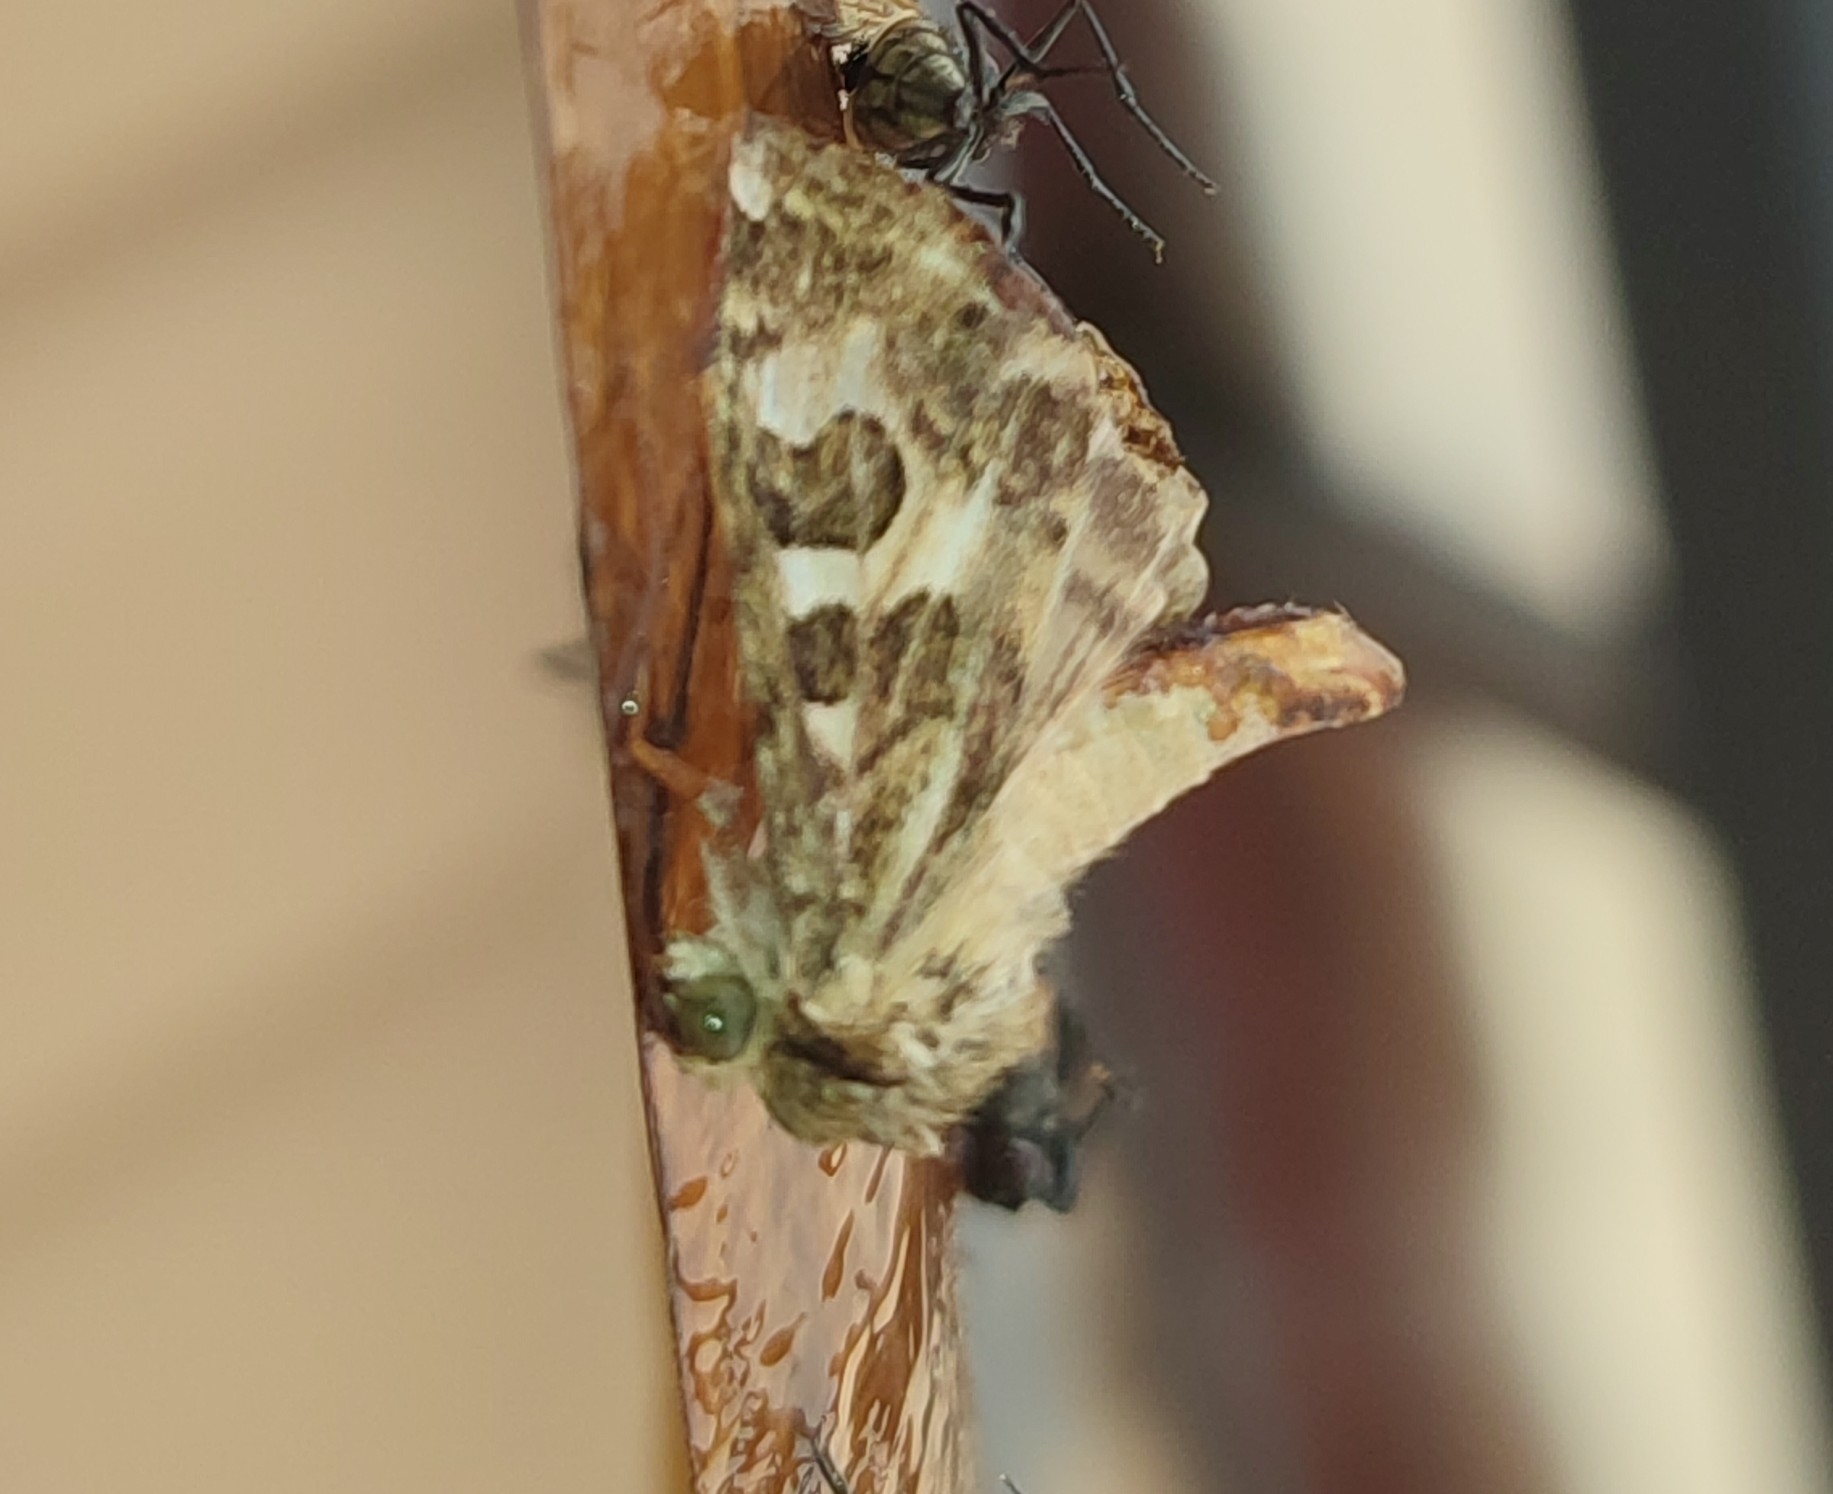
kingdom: Animalia
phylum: Arthropoda
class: Insecta
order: Lepidoptera
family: Noctuidae
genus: Protoschinia
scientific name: Protoschinia scutosa
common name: Spotted clover
